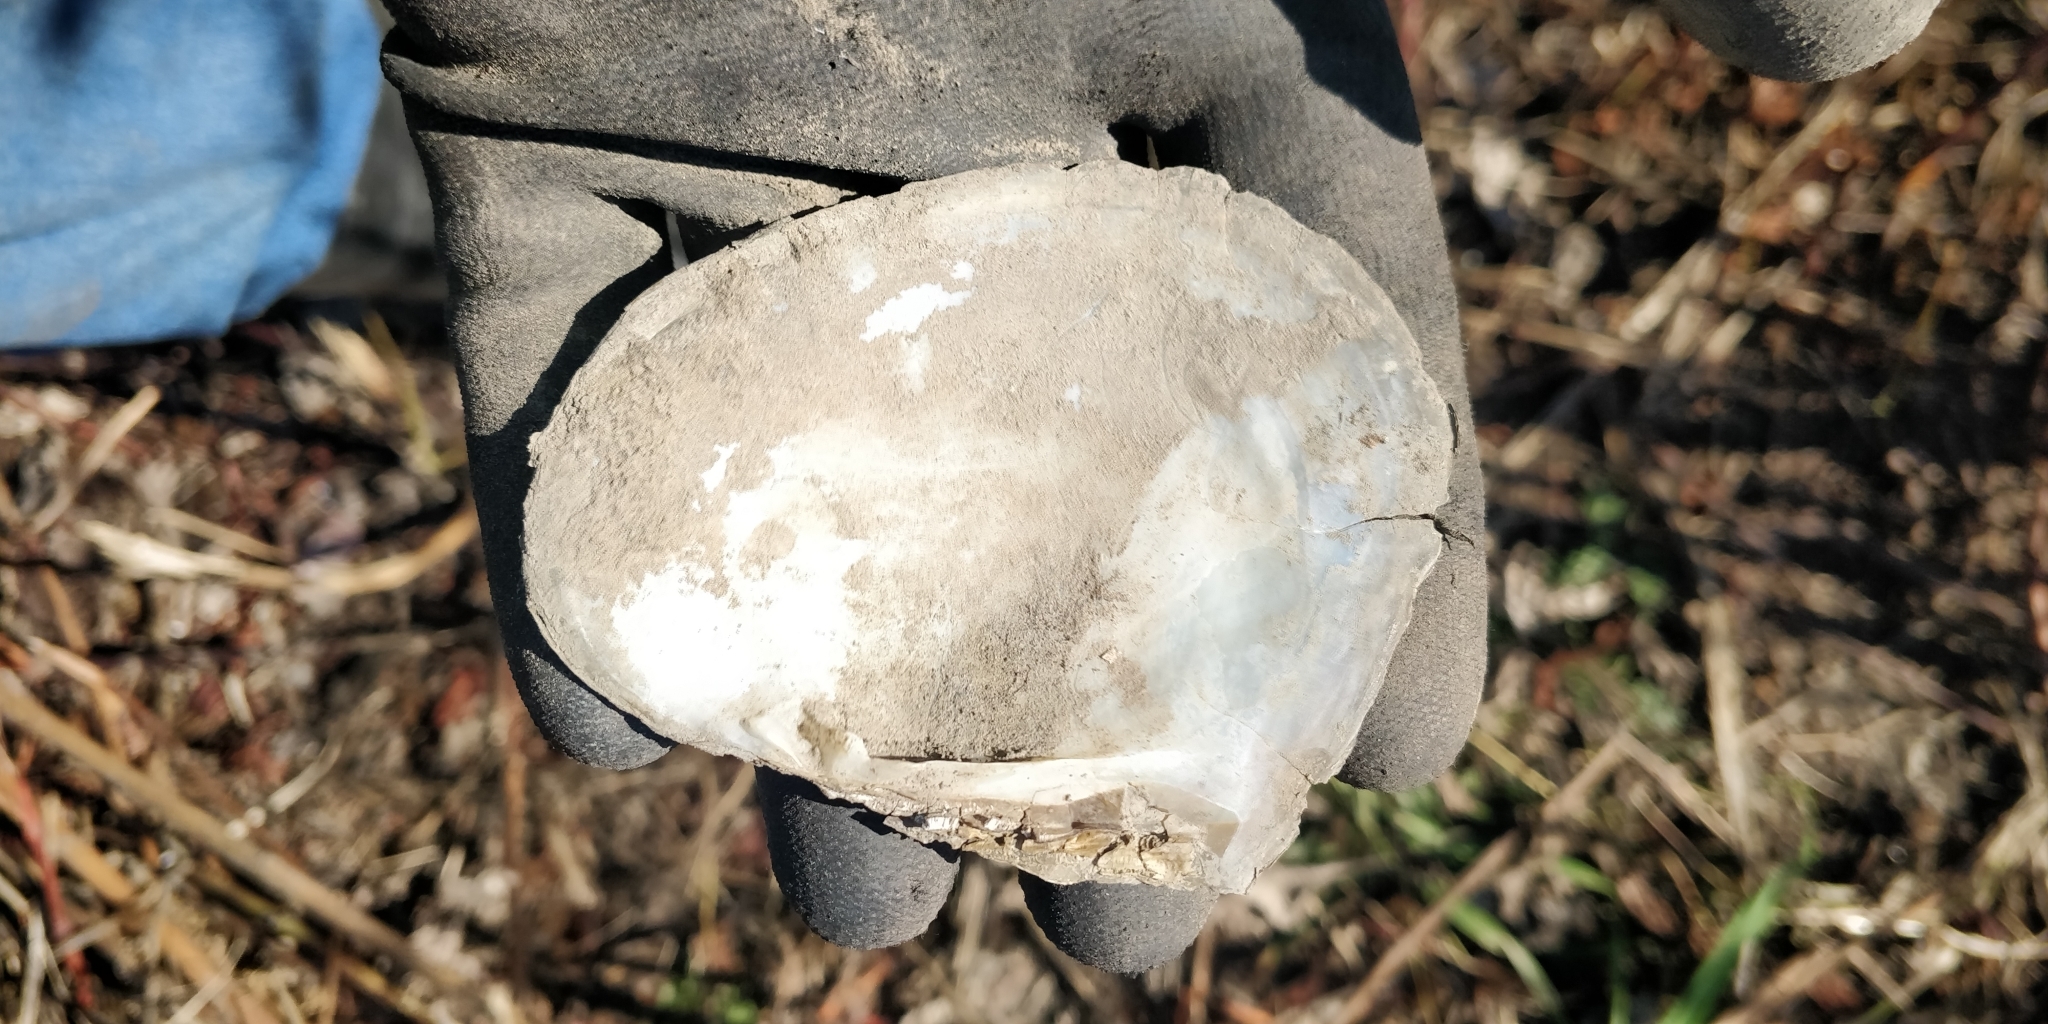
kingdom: Animalia
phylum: Mollusca
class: Bivalvia
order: Unionida
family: Unionidae
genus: Lasmigona
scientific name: Lasmigona complanata
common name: White heelsplitter
